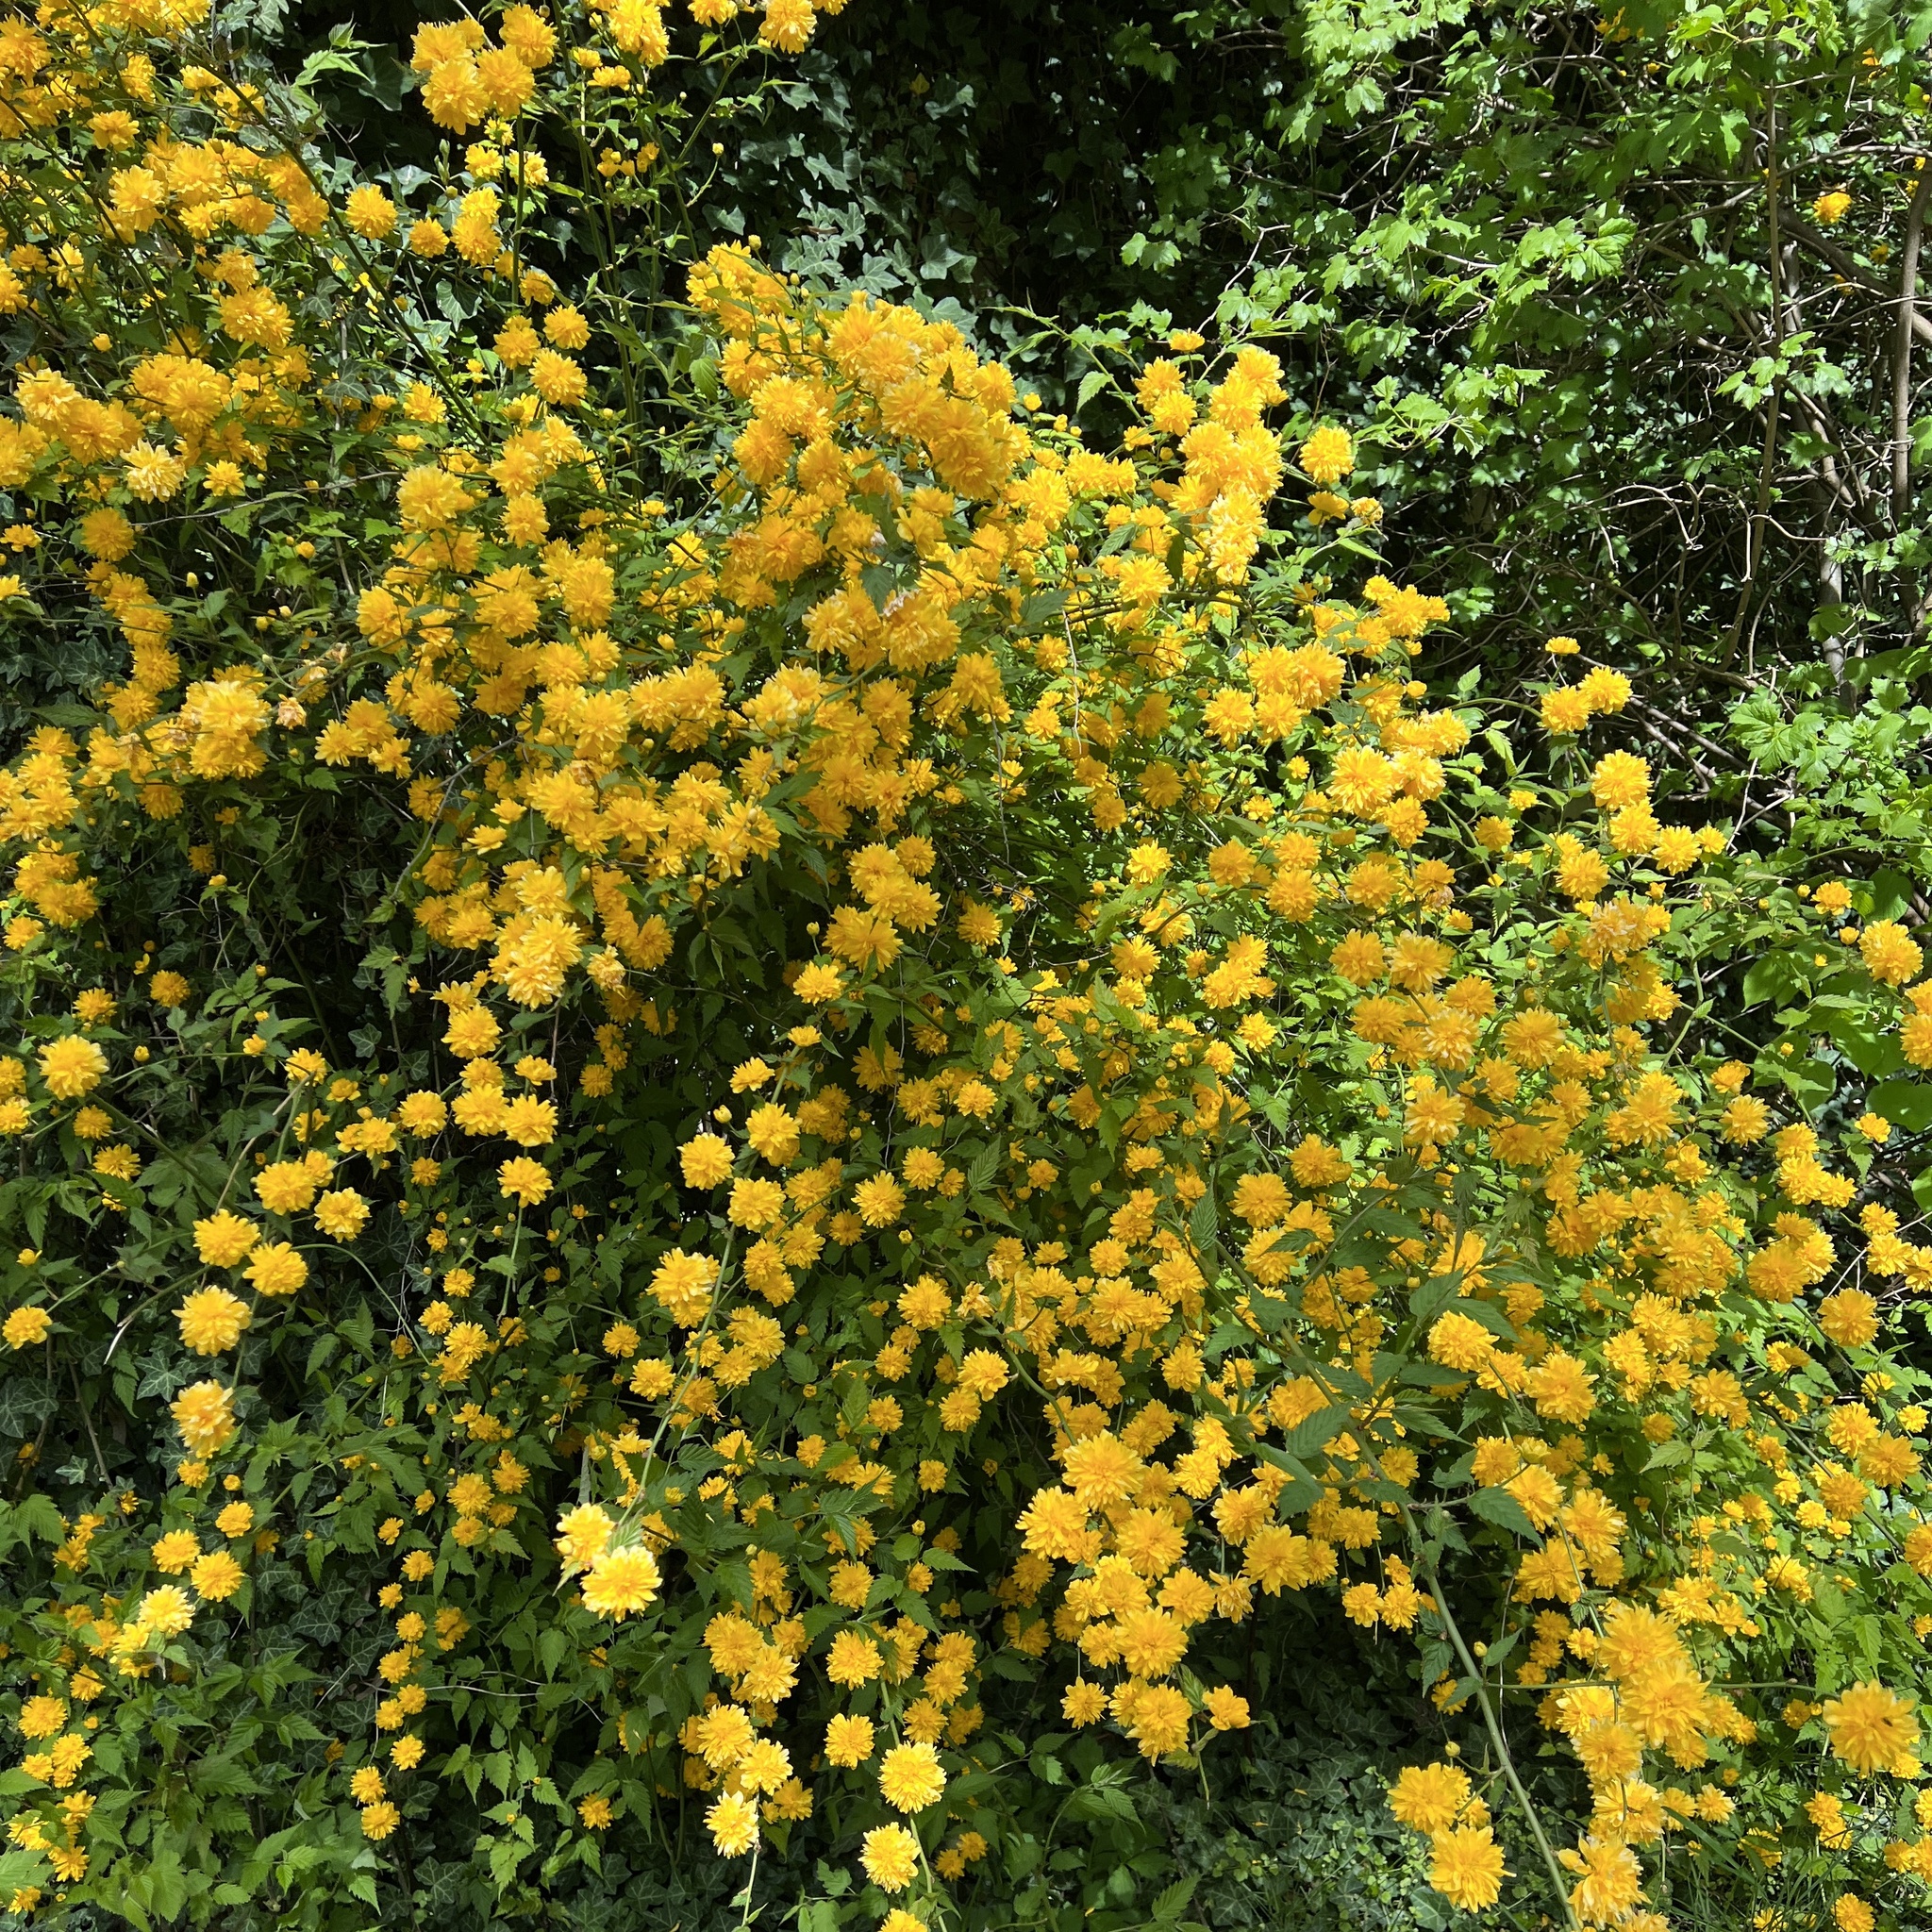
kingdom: Plantae
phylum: Tracheophyta
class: Magnoliopsida
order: Rosales
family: Rosaceae
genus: Kerria
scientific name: Kerria japonica
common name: Japanese kerria
